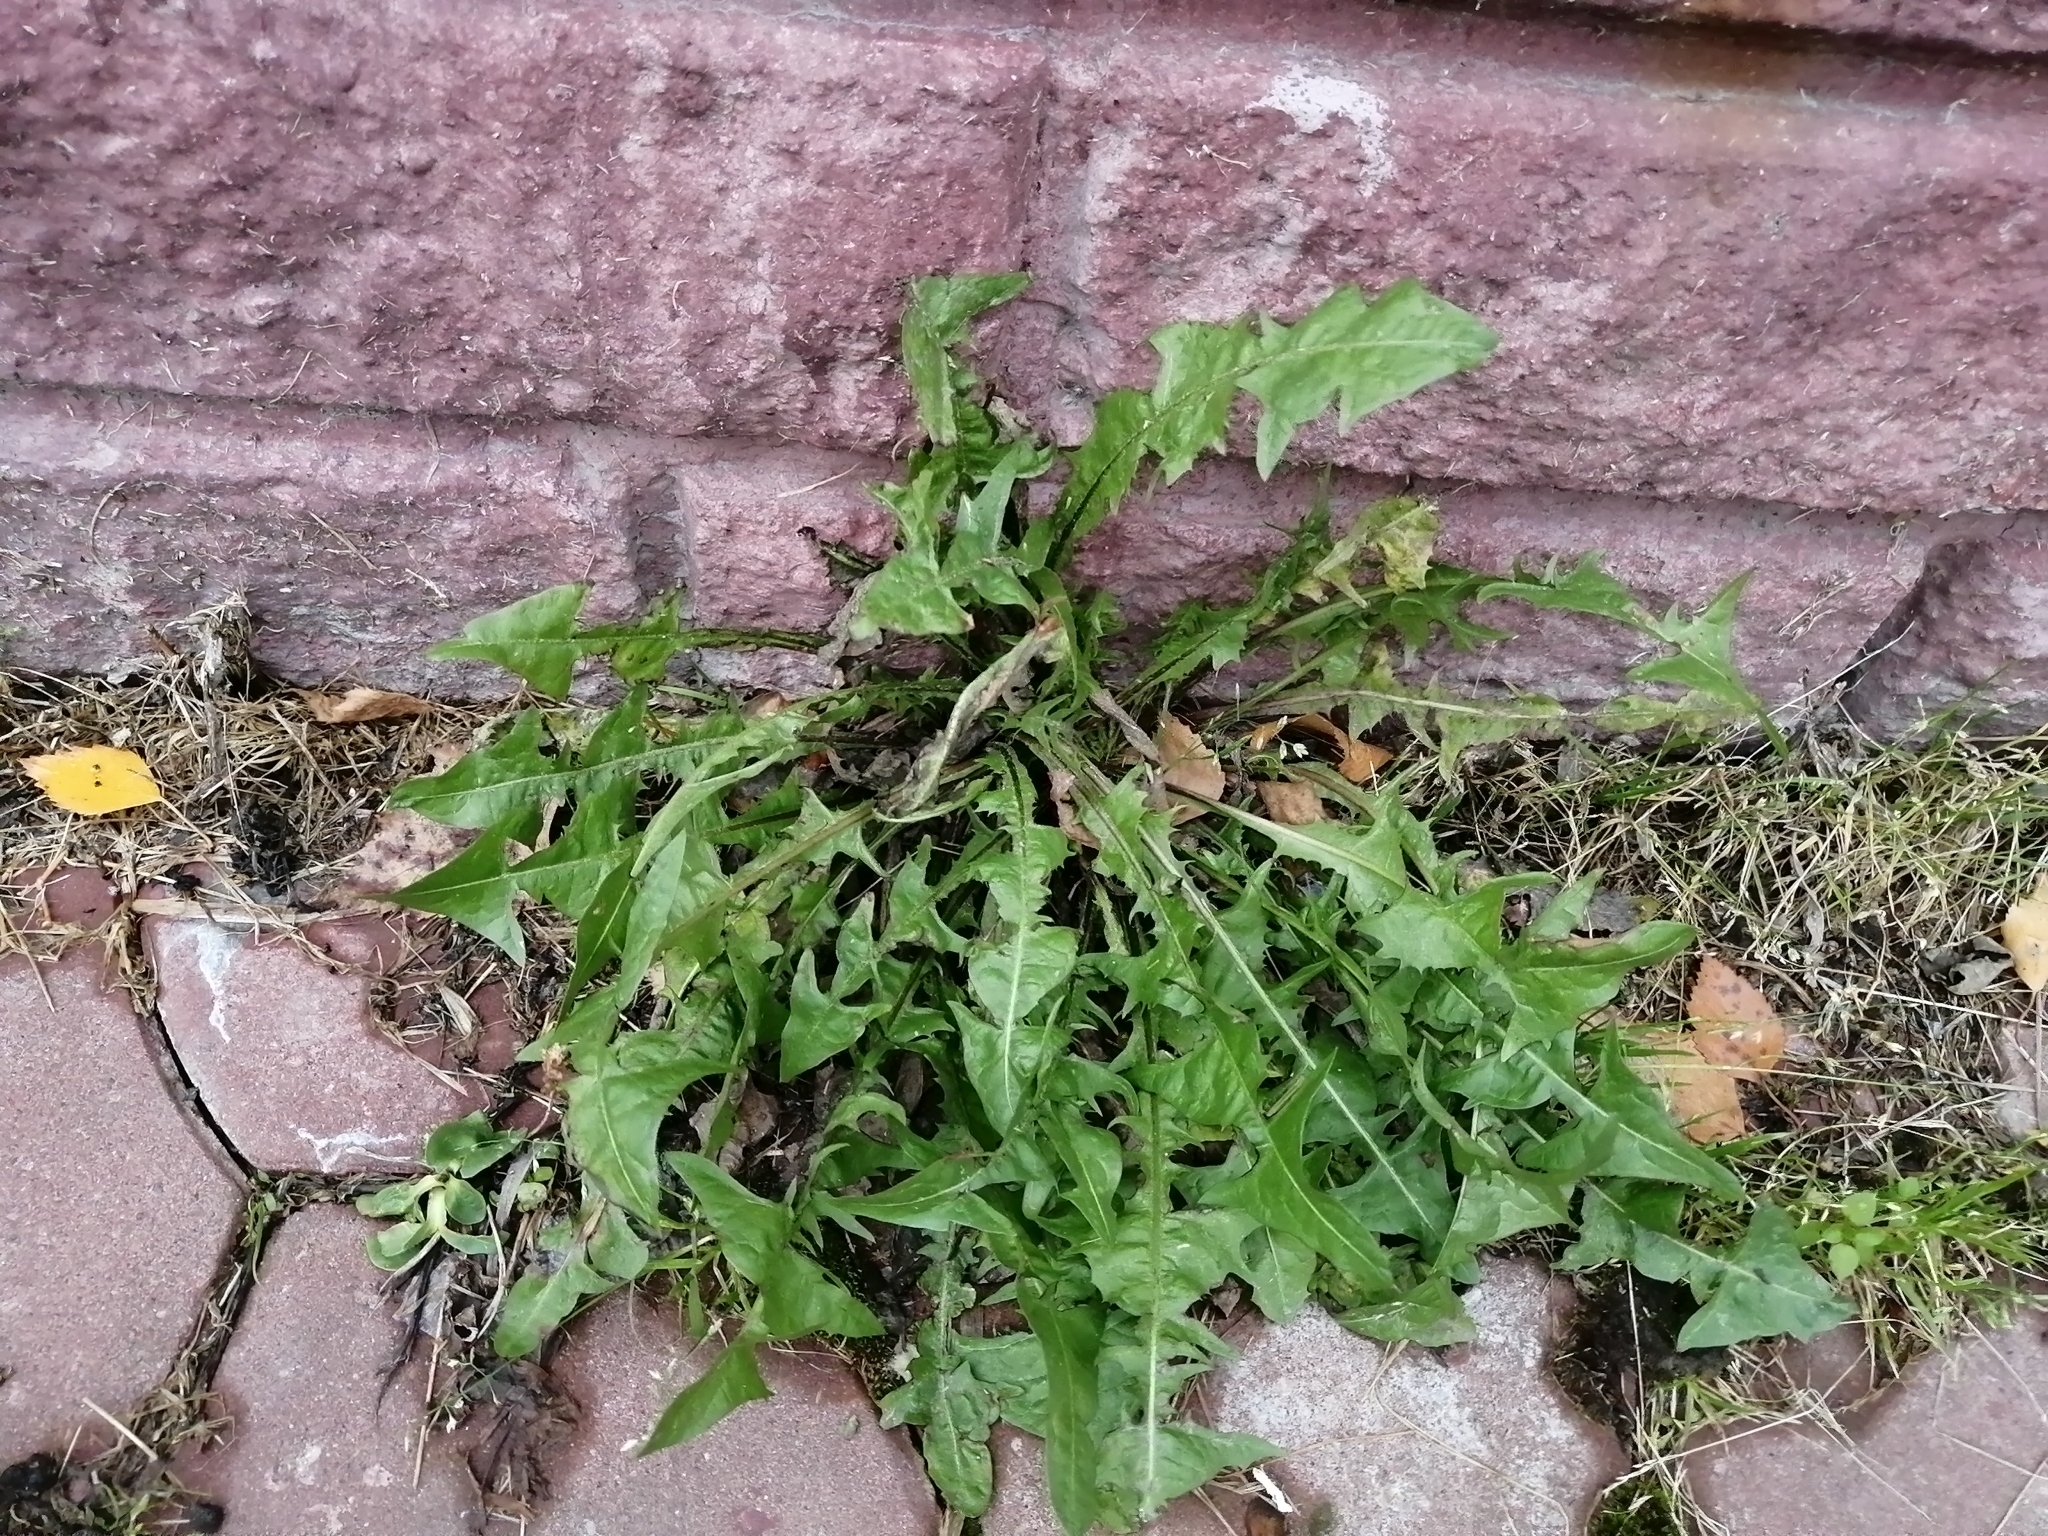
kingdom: Plantae
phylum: Tracheophyta
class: Magnoliopsida
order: Asterales
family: Asteraceae
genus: Taraxacum
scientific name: Taraxacum officinale
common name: Common dandelion
